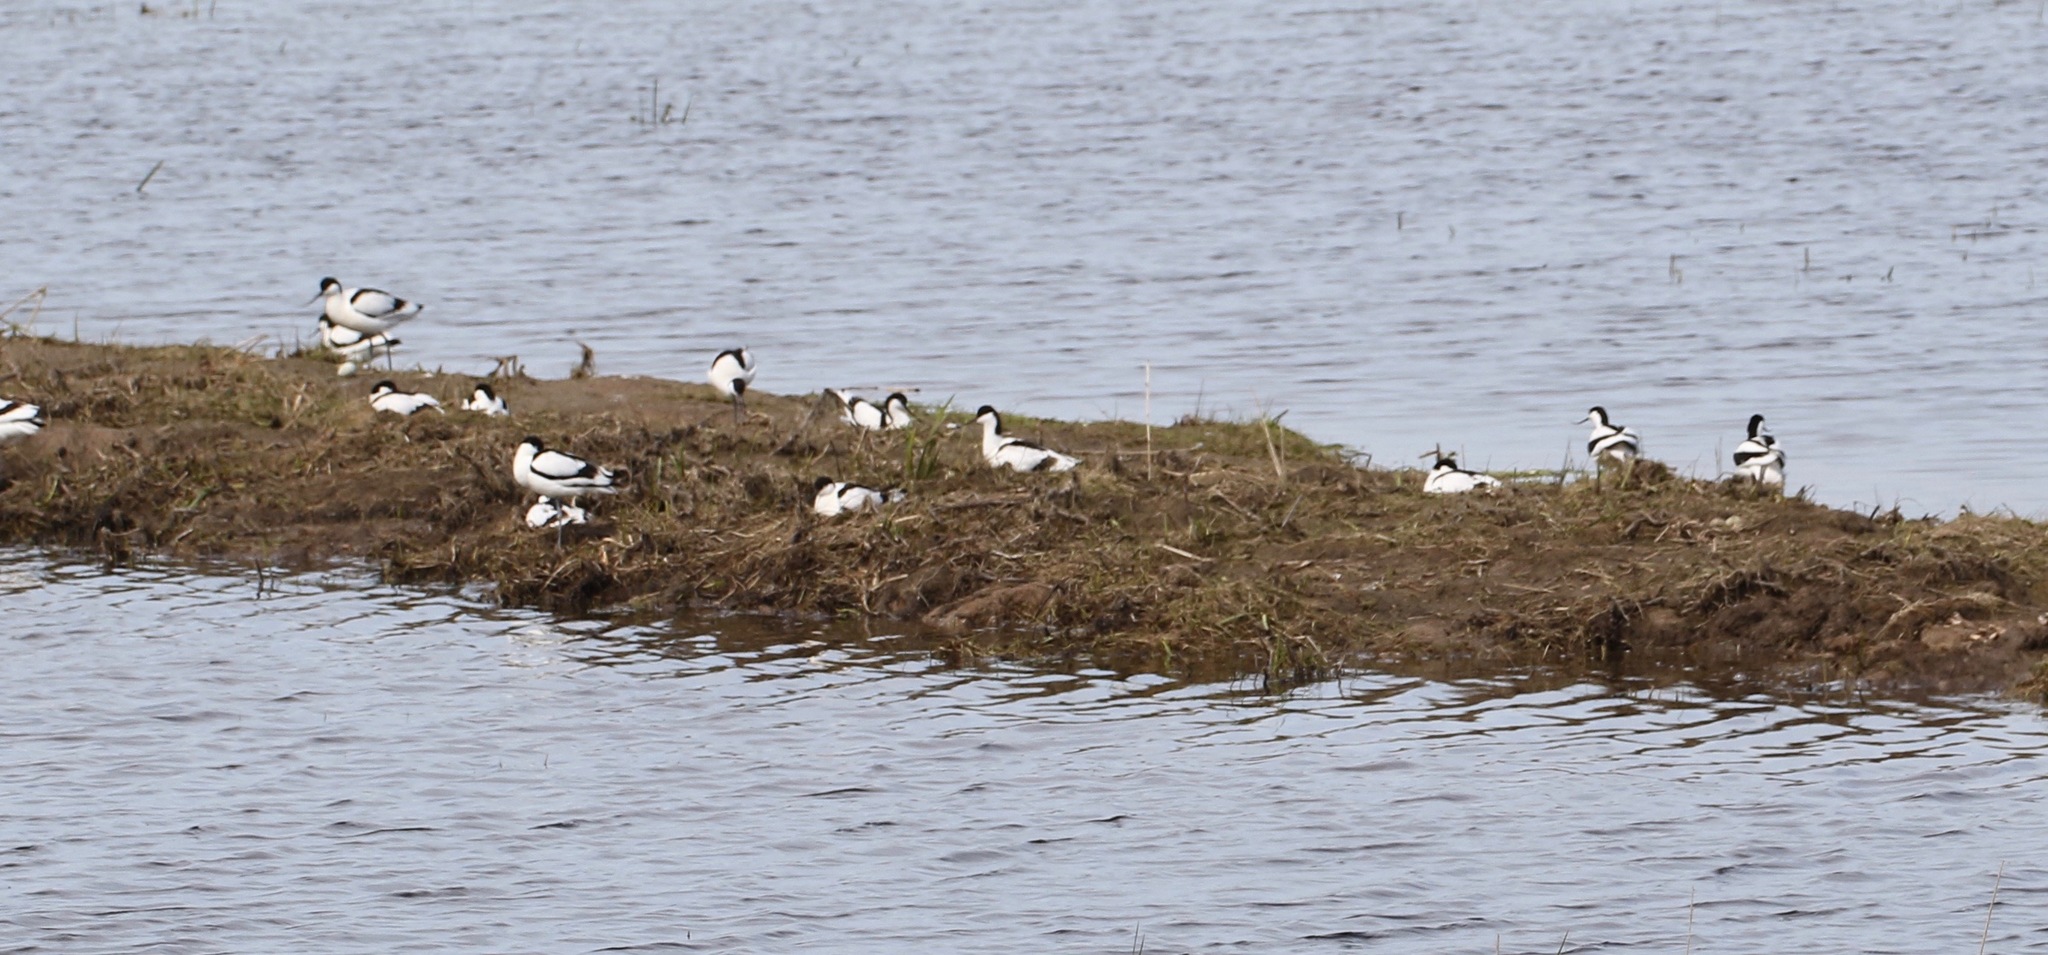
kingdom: Animalia
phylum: Chordata
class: Aves
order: Charadriiformes
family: Recurvirostridae
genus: Recurvirostra
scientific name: Recurvirostra avosetta
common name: Pied avocet
